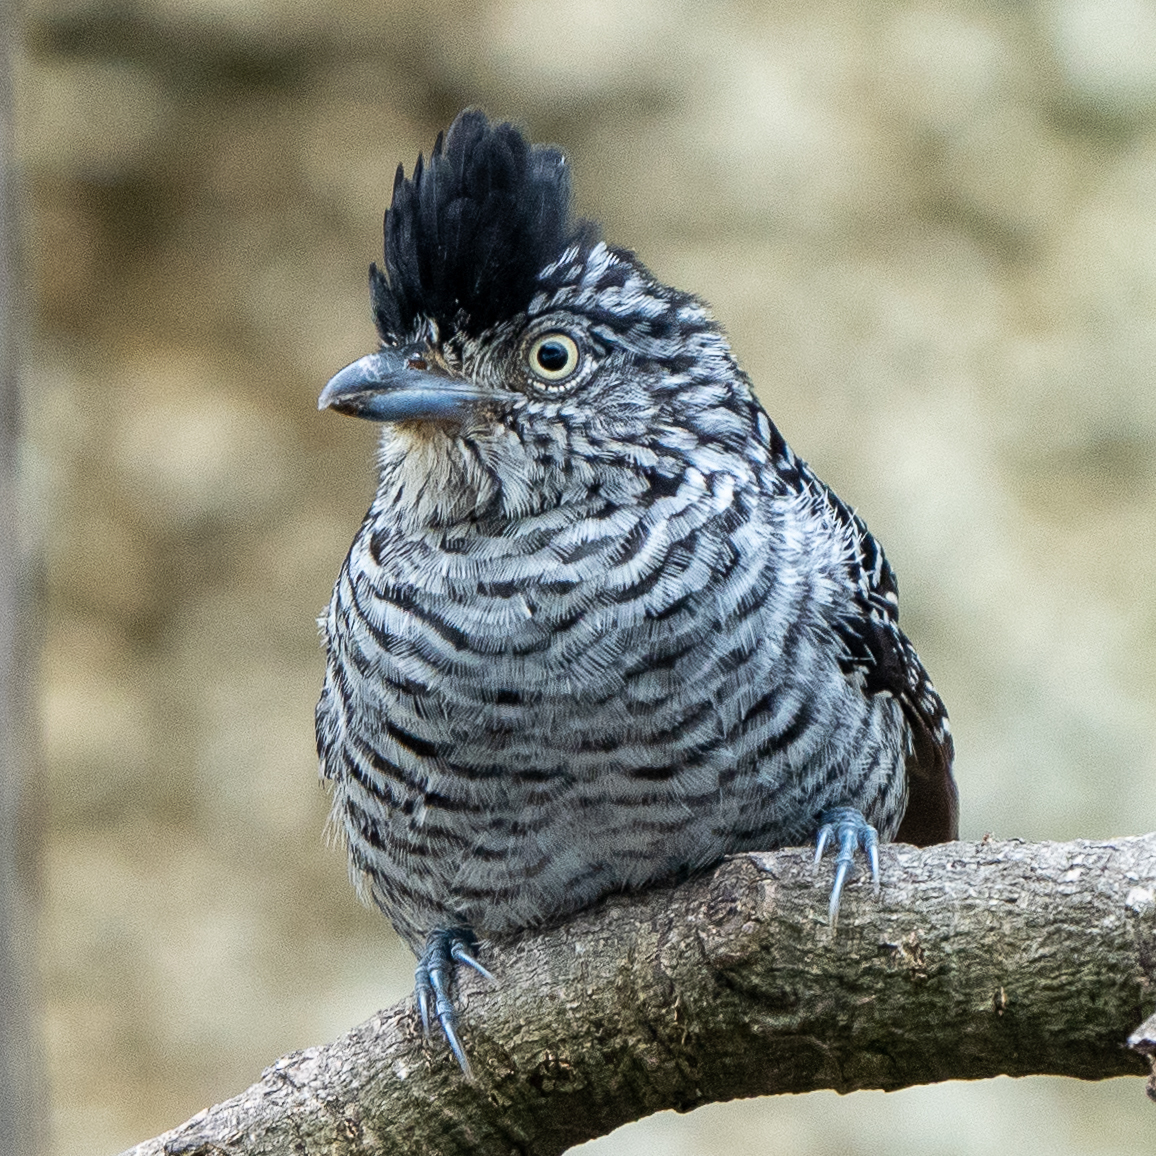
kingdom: Animalia
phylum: Chordata
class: Aves
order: Passeriformes
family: Thamnophilidae
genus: Thamnophilus
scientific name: Thamnophilus doliatus
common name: Barred antshrike
